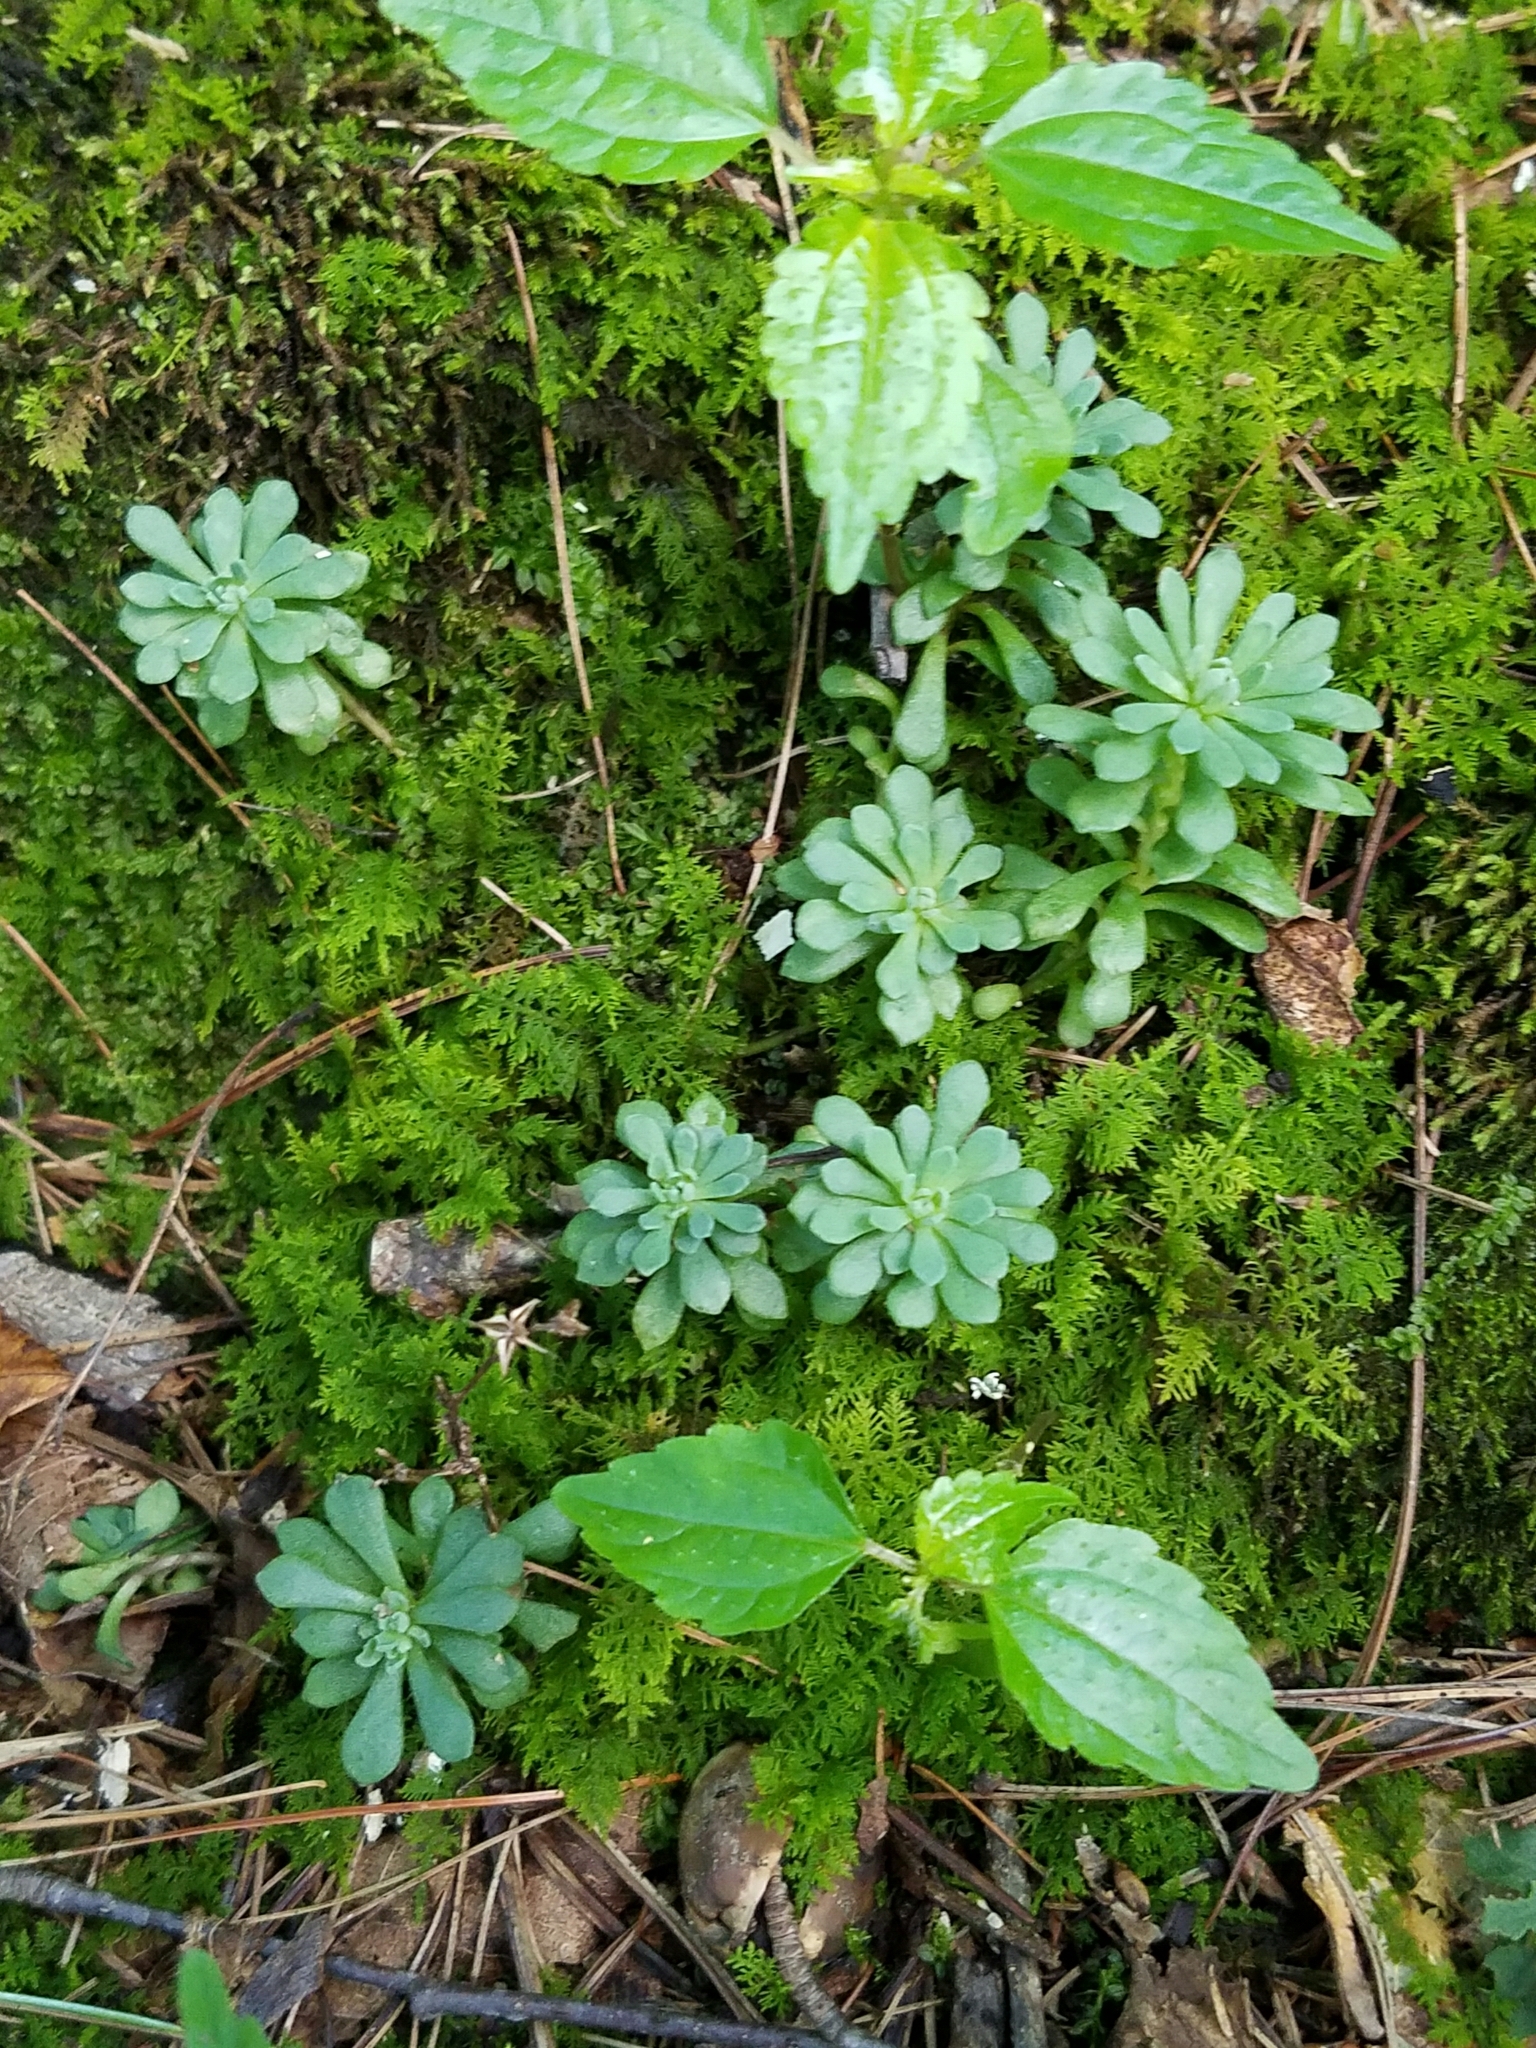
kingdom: Plantae
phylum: Tracheophyta
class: Magnoliopsida
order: Saxifragales
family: Crassulaceae
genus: Sedum
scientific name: Sedum glaucophyllum
